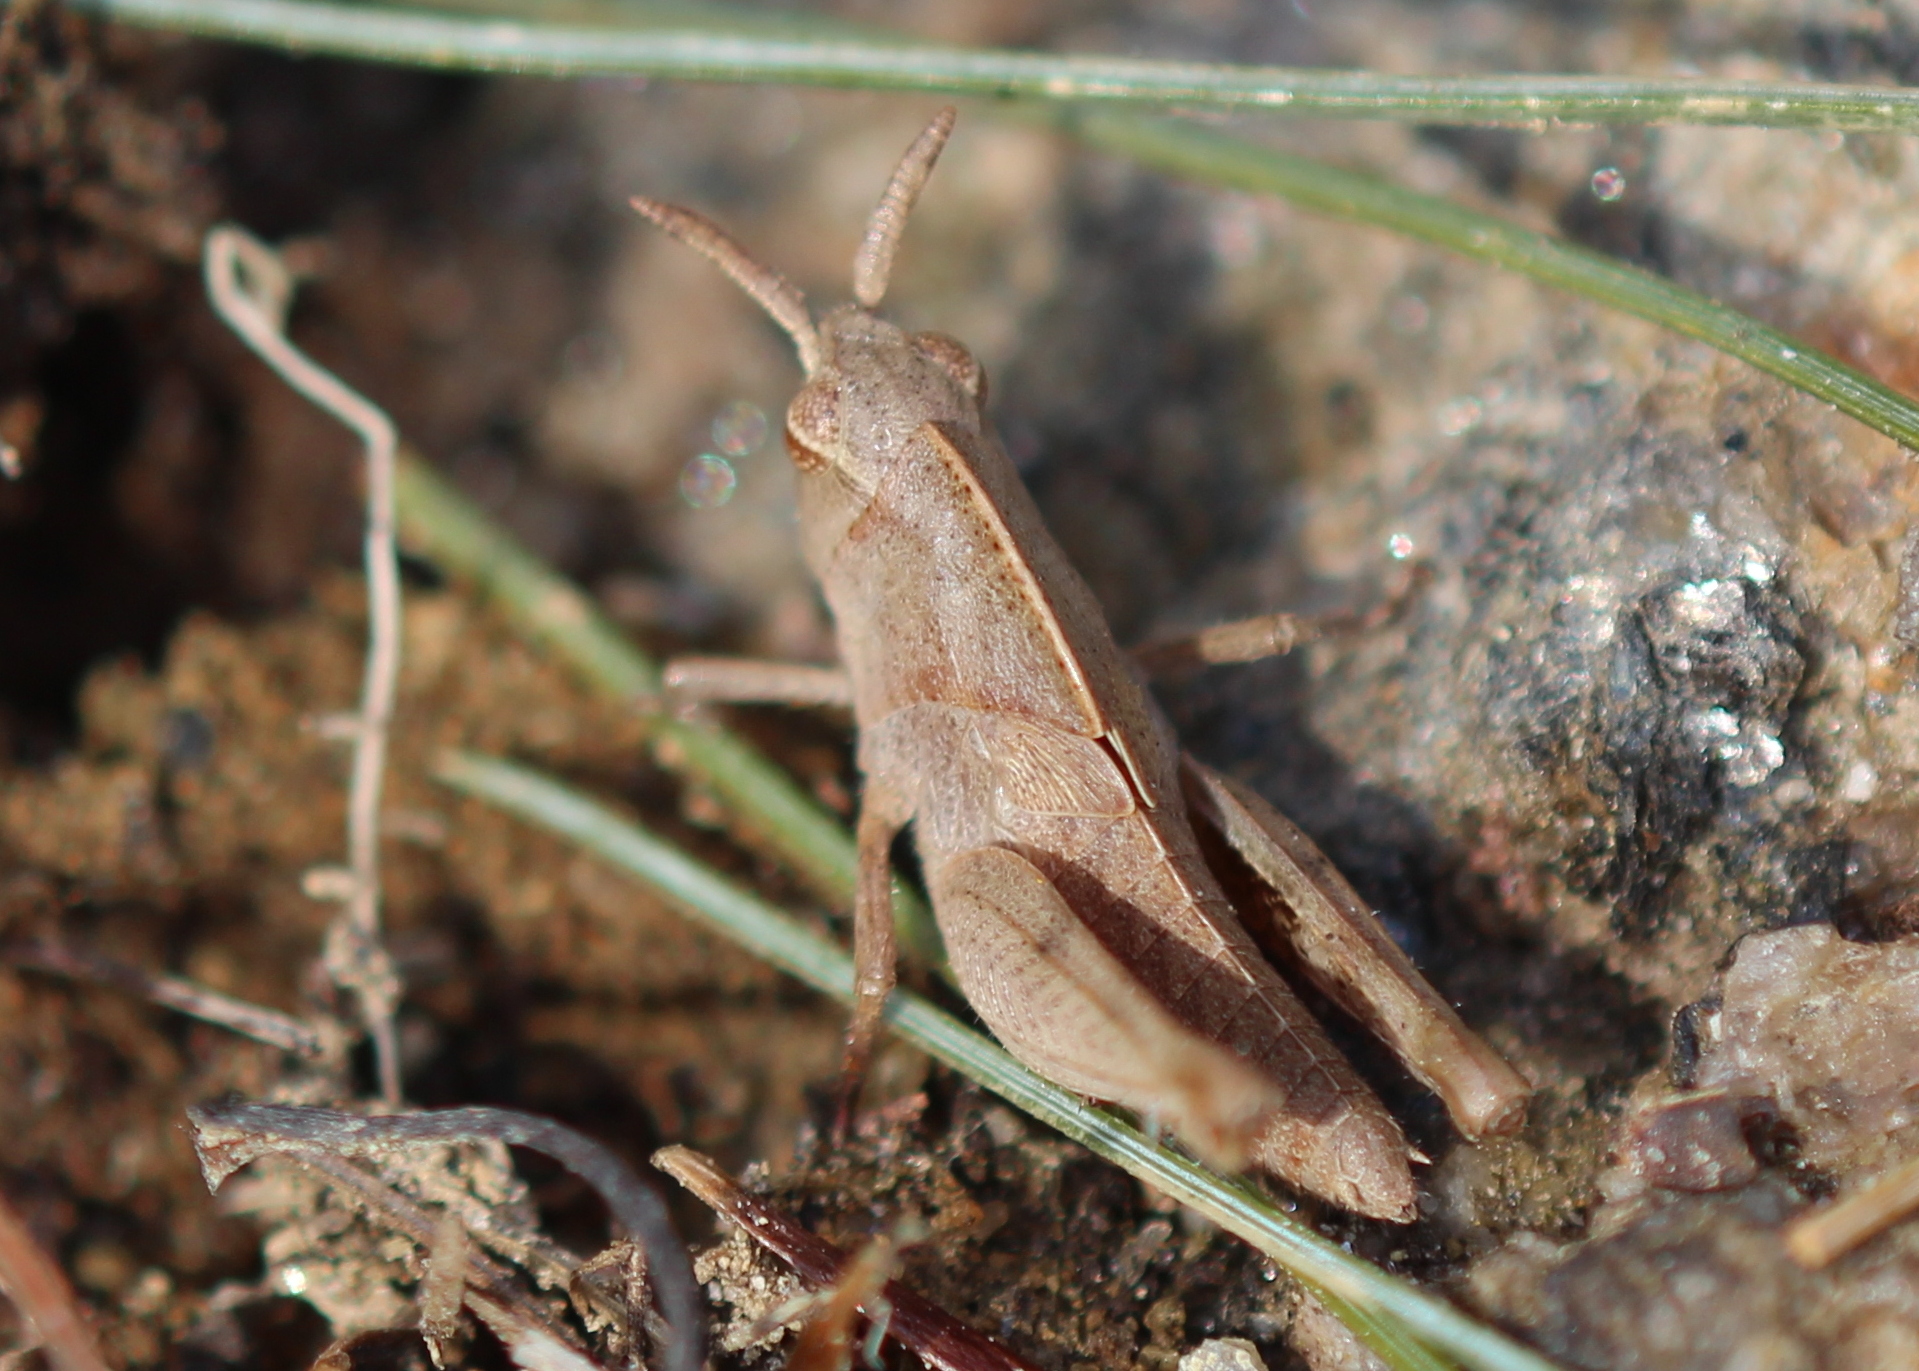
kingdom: Animalia
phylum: Arthropoda
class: Insecta
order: Orthoptera
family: Acrididae
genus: Chortophaga
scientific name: Chortophaga viridifasciata
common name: Green-striped grasshopper
